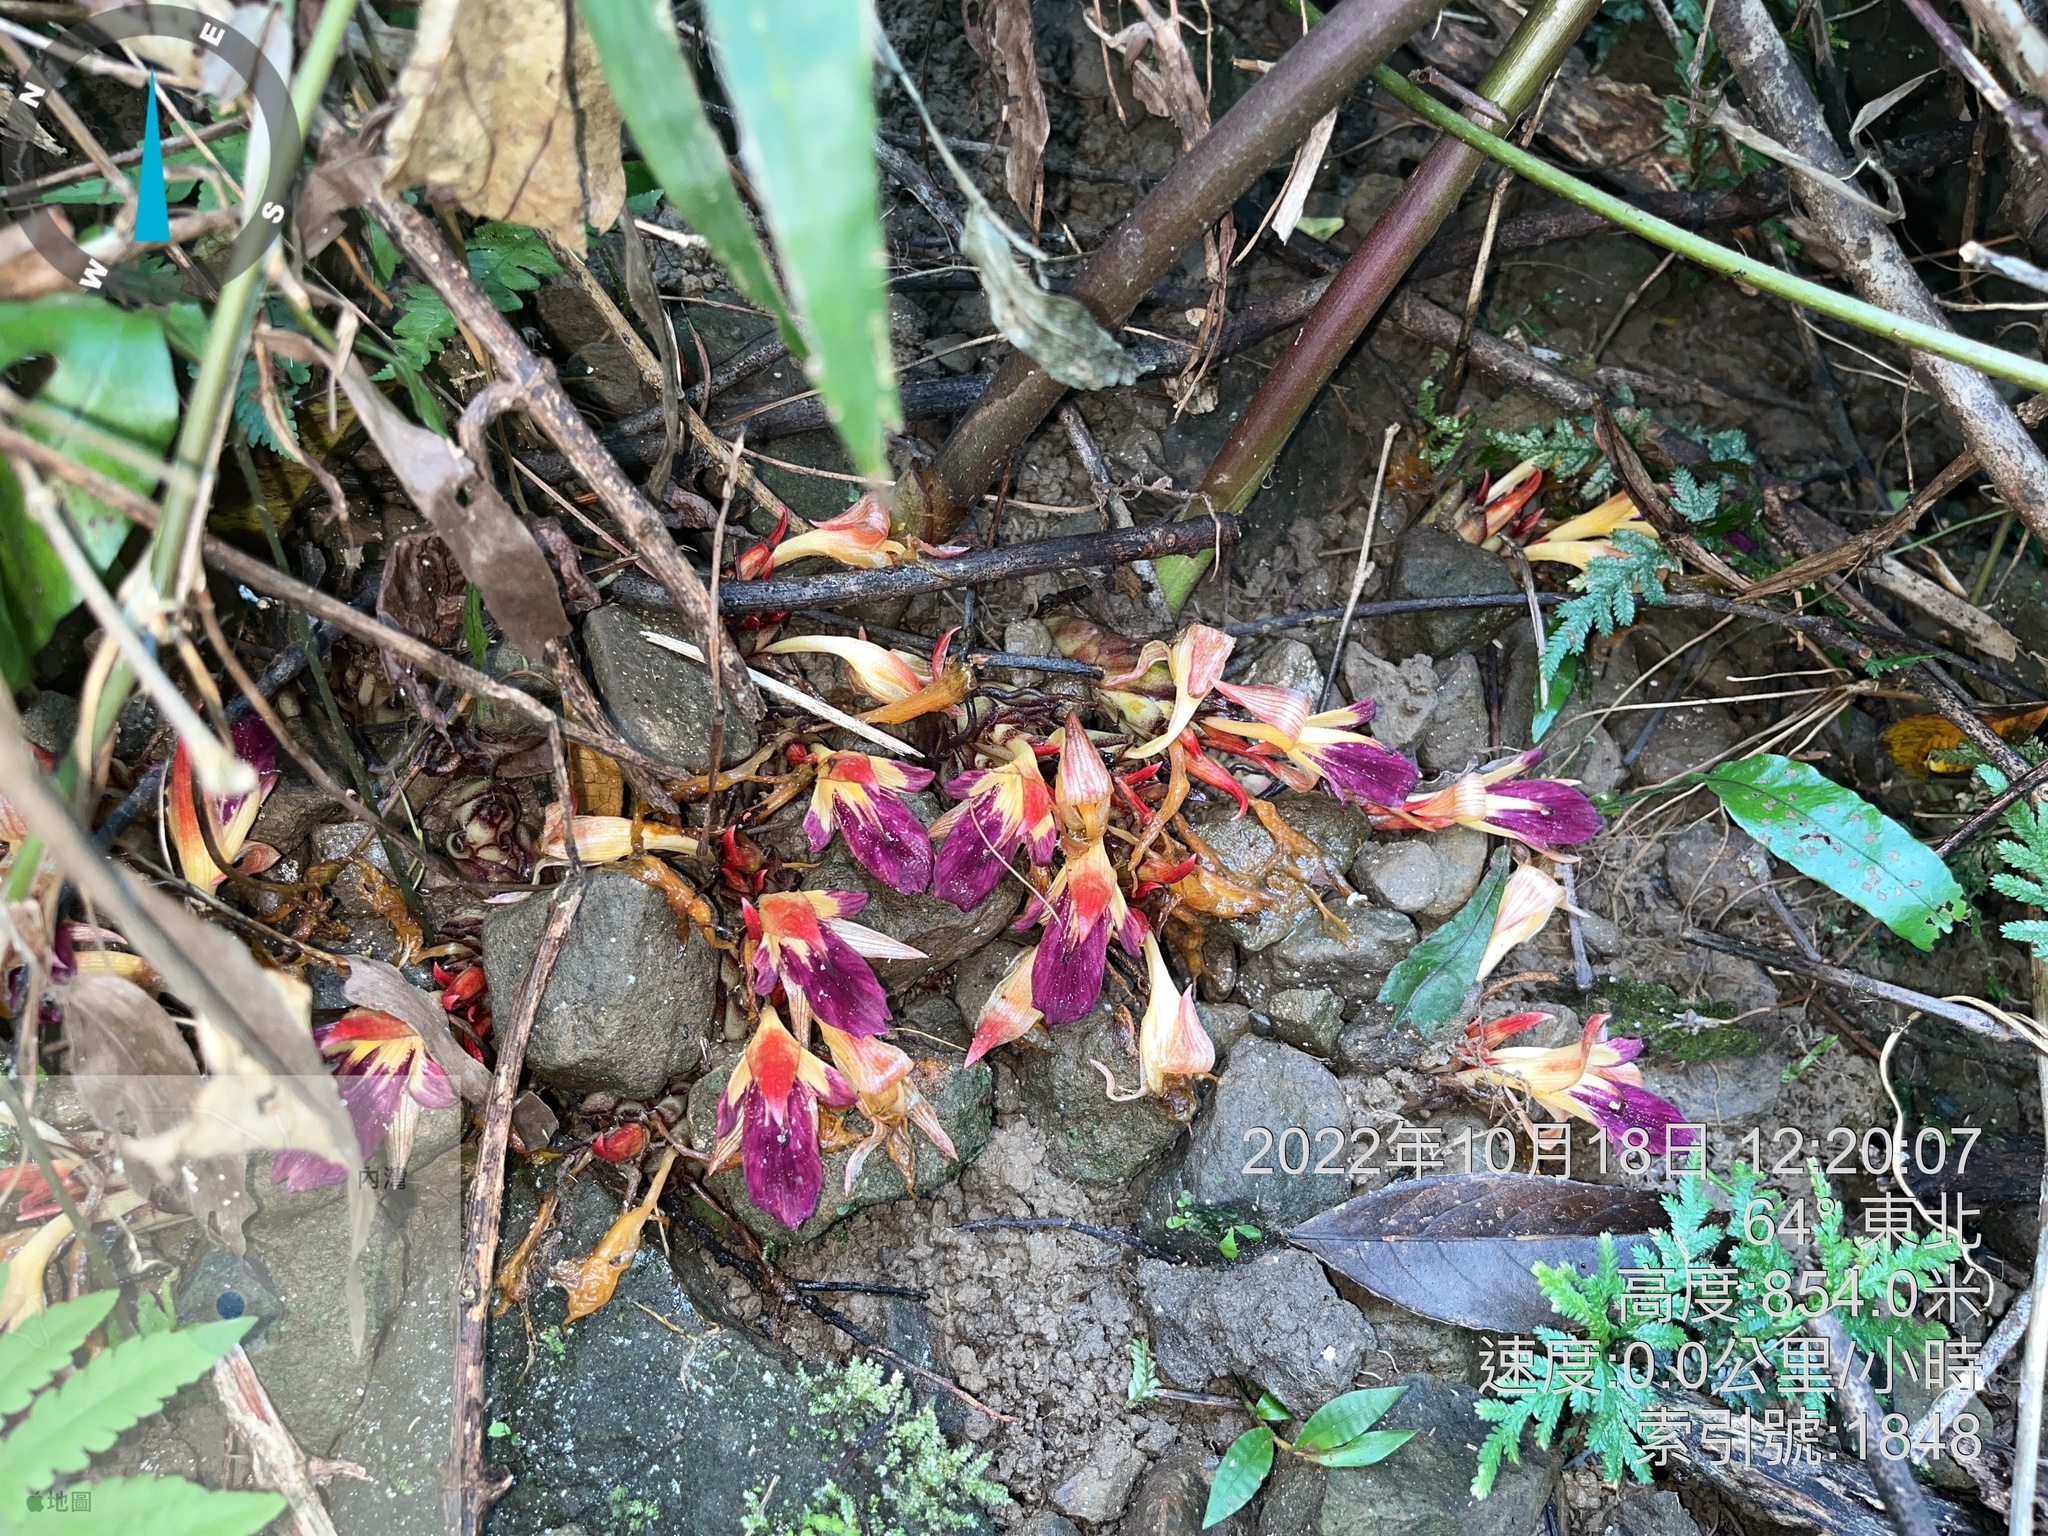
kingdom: Plantae
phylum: Tracheophyta
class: Liliopsida
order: Zingiberales
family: Zingiberaceae
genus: Zingiber
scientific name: Zingiber kawagoii
